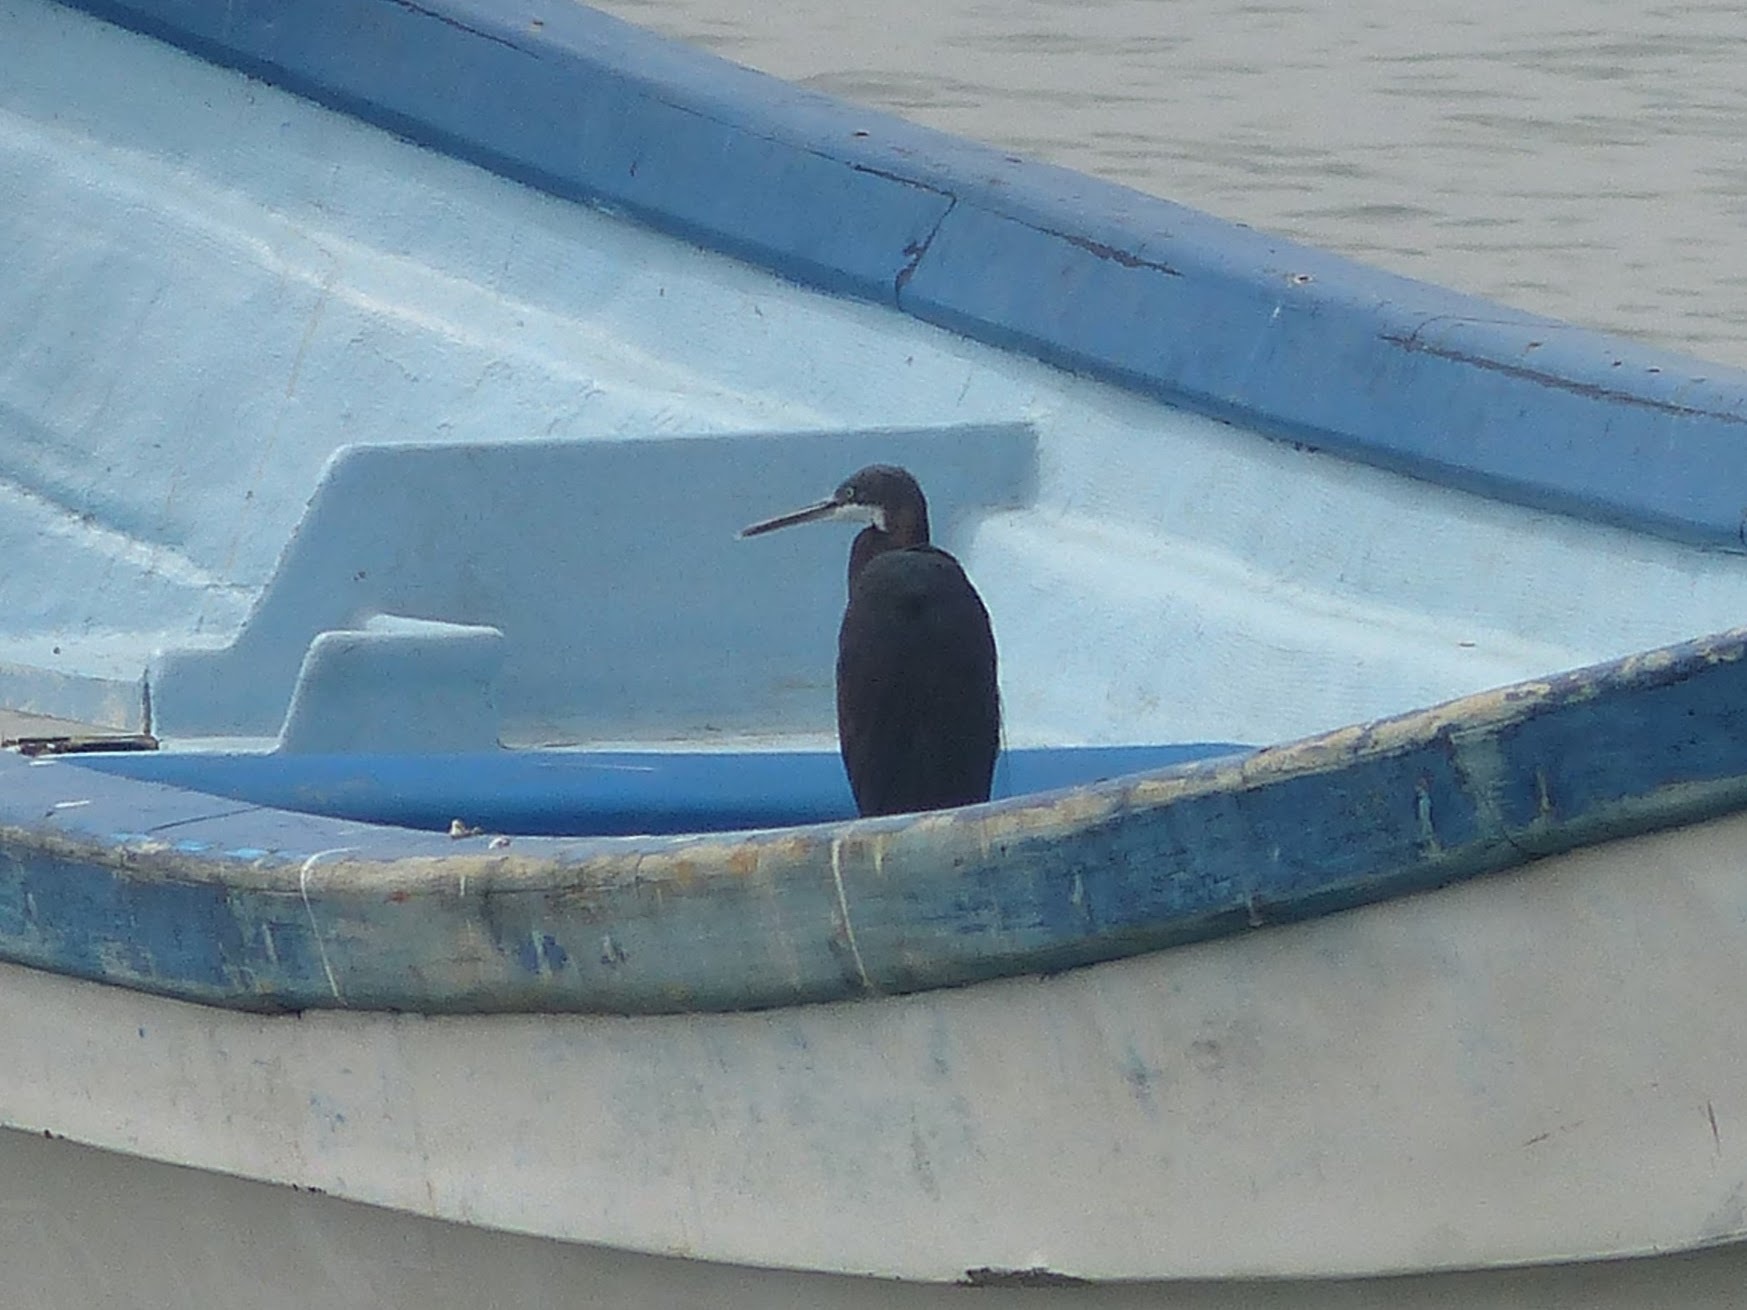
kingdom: Animalia
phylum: Chordata
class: Aves
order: Pelecaniformes
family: Ardeidae
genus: Egretta
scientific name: Egretta gularis
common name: Western reef-heron
